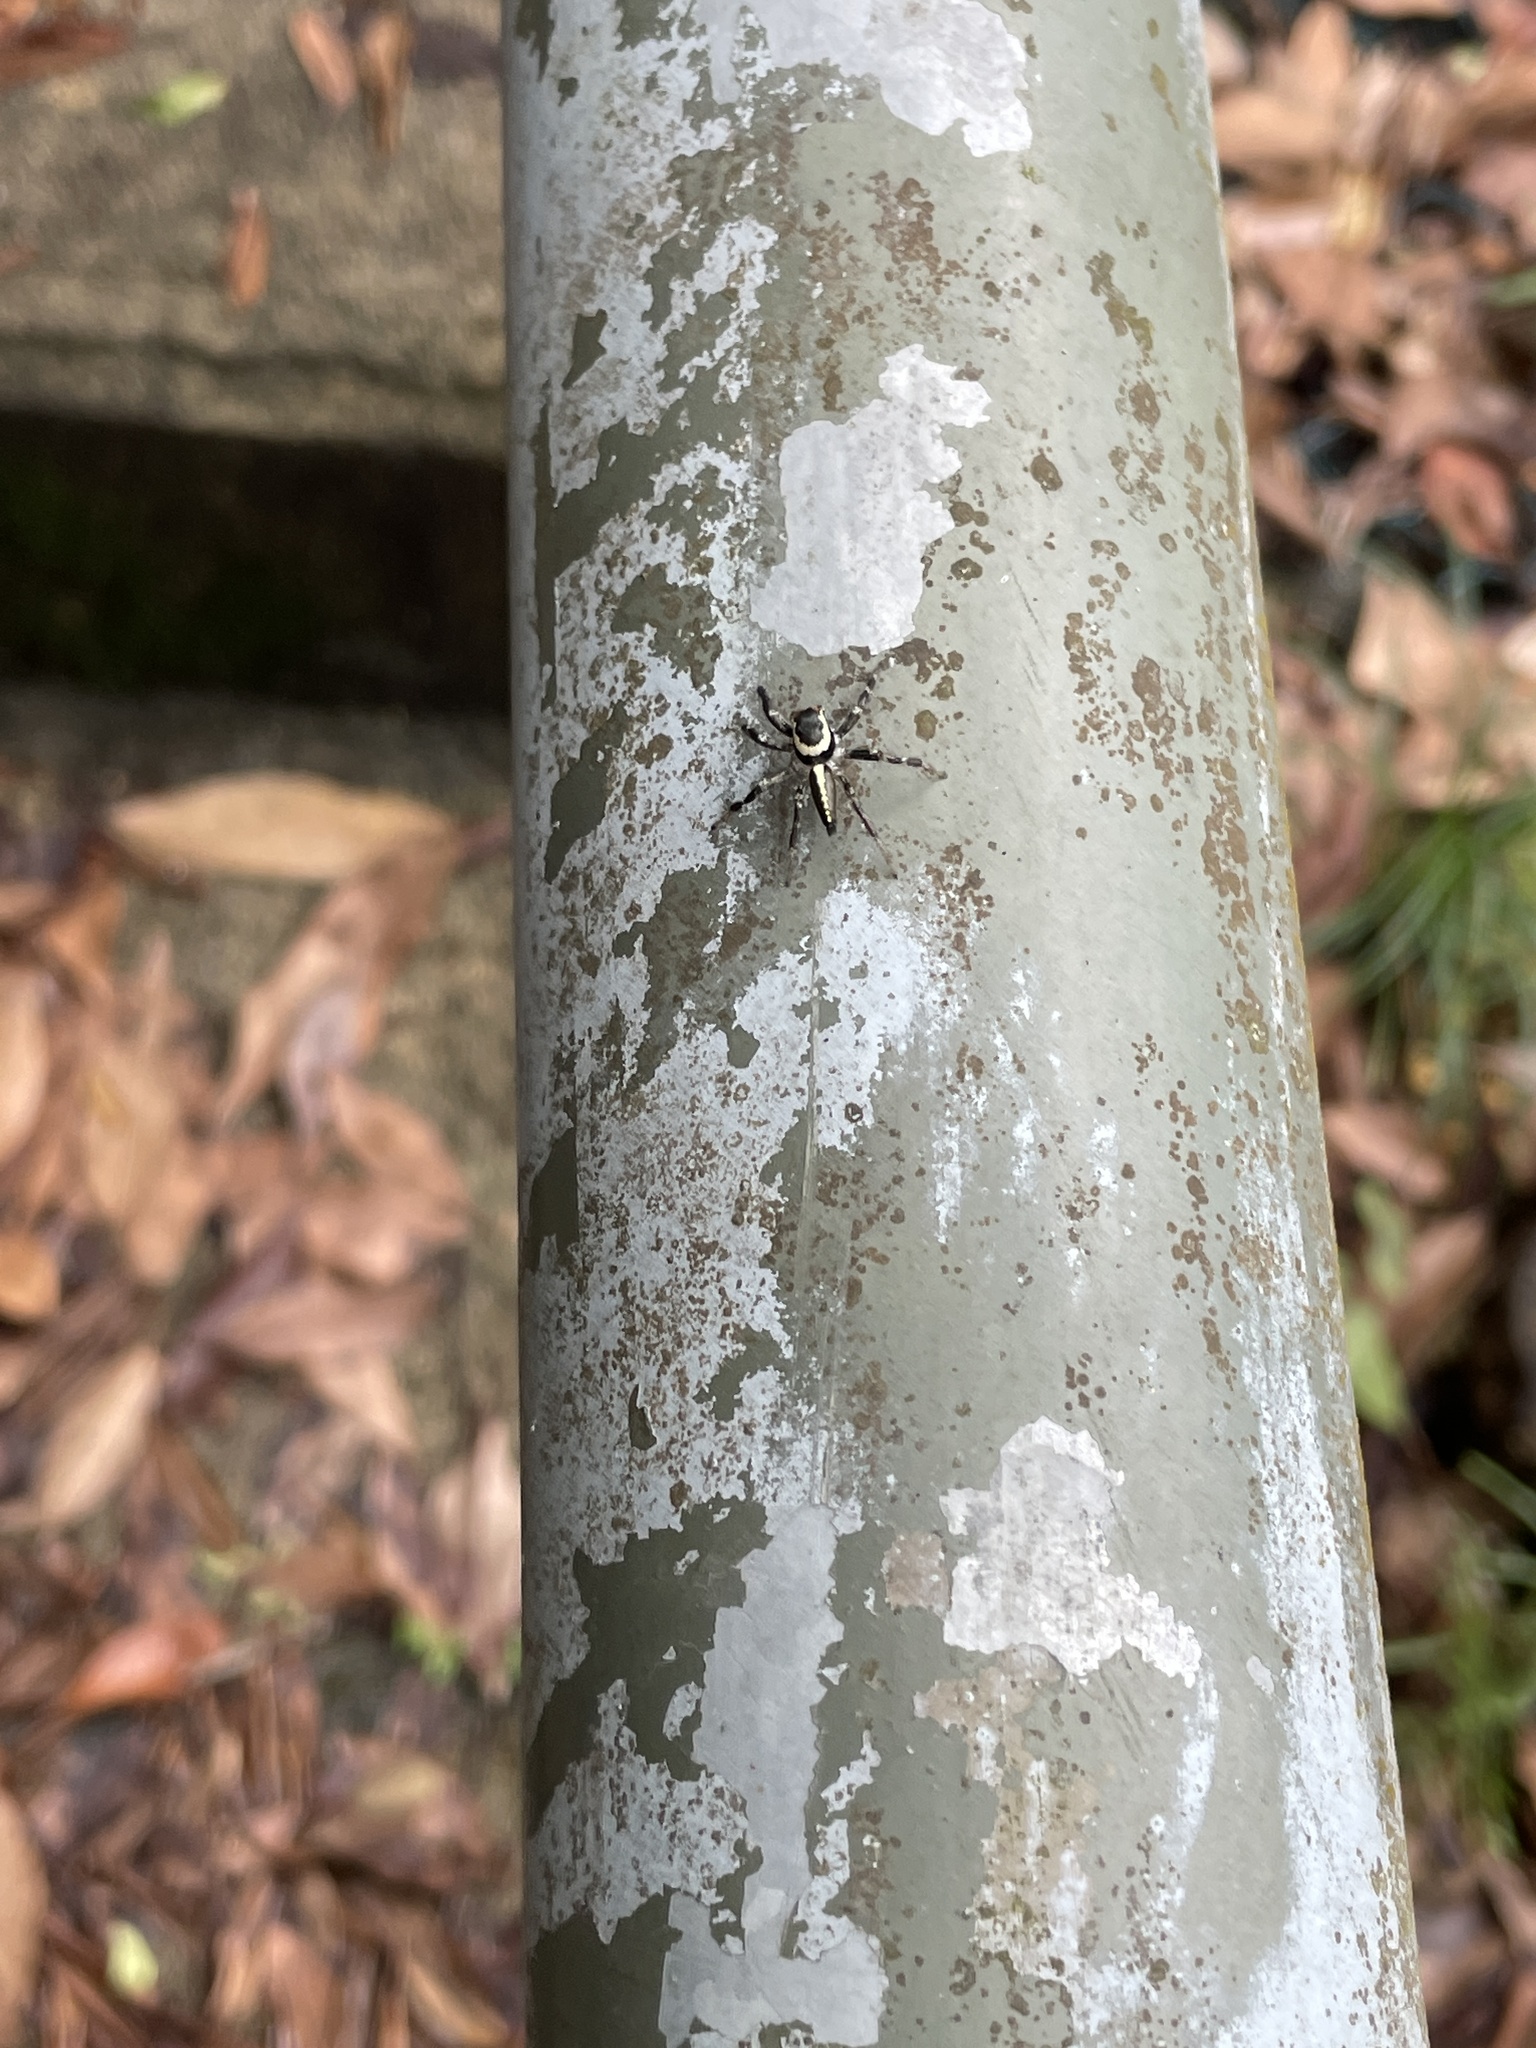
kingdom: Animalia
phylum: Arthropoda
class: Arachnida
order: Araneae
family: Salticidae
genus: Telamonia
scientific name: Telamonia caprina
